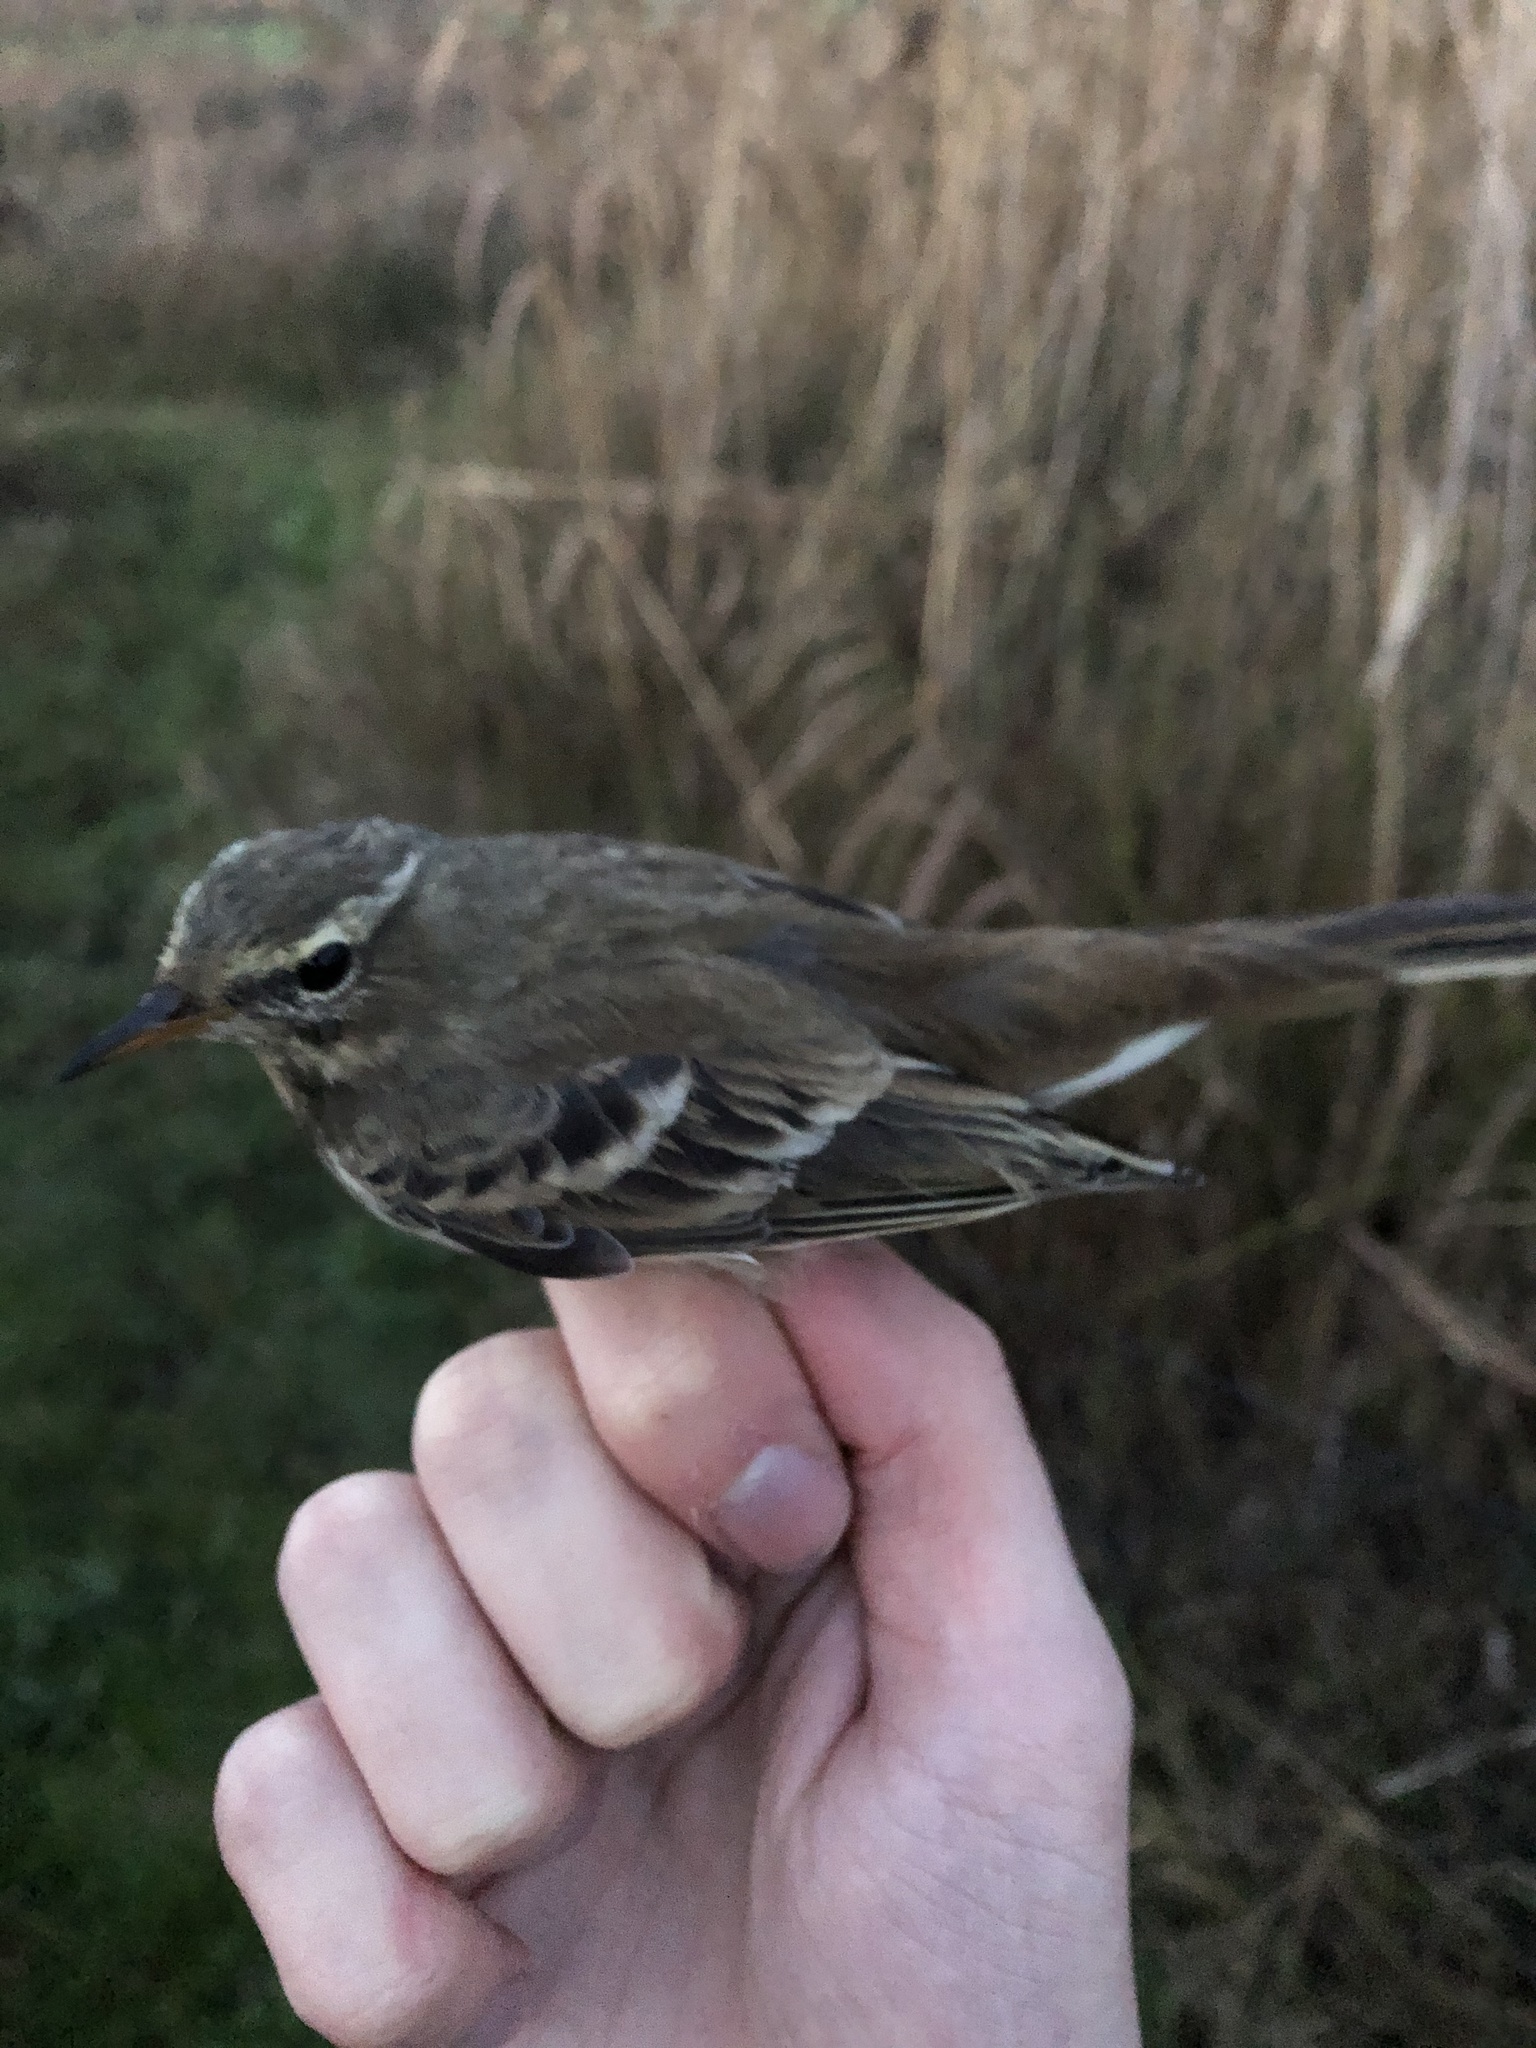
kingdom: Animalia
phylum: Chordata
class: Aves
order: Passeriformes
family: Motacillidae
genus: Anthus
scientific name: Anthus spinoletta
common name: Water pipit
